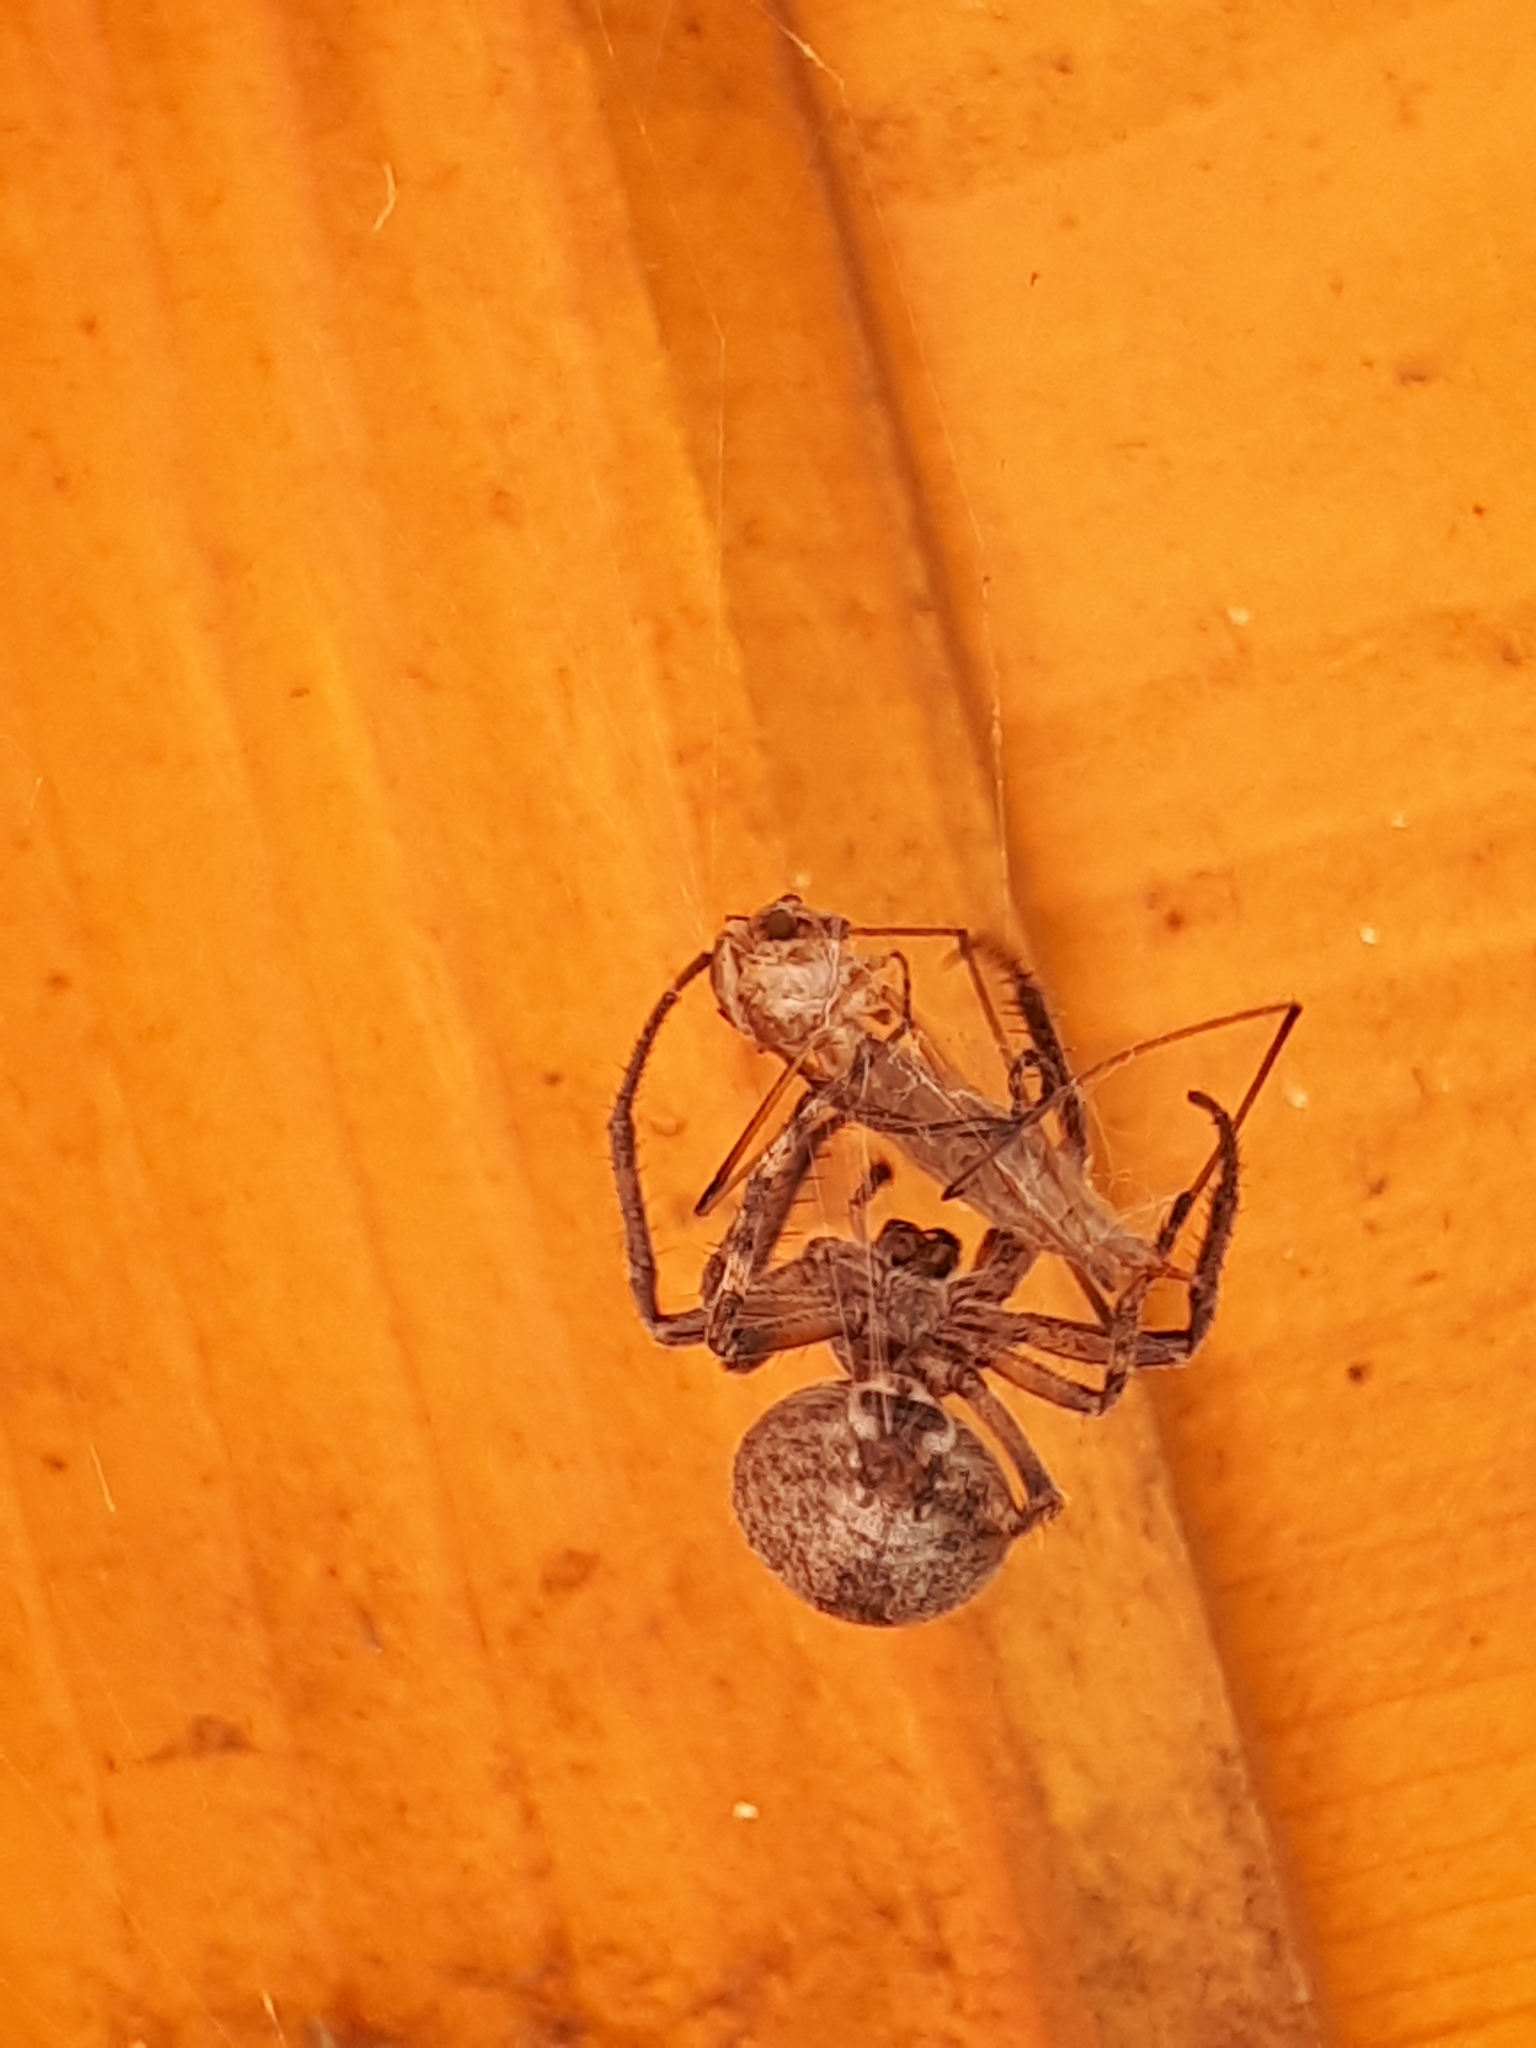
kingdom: Animalia
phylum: Arthropoda
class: Arachnida
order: Araneae
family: Araneidae
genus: Larinioides
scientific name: Larinioides ixobolus
